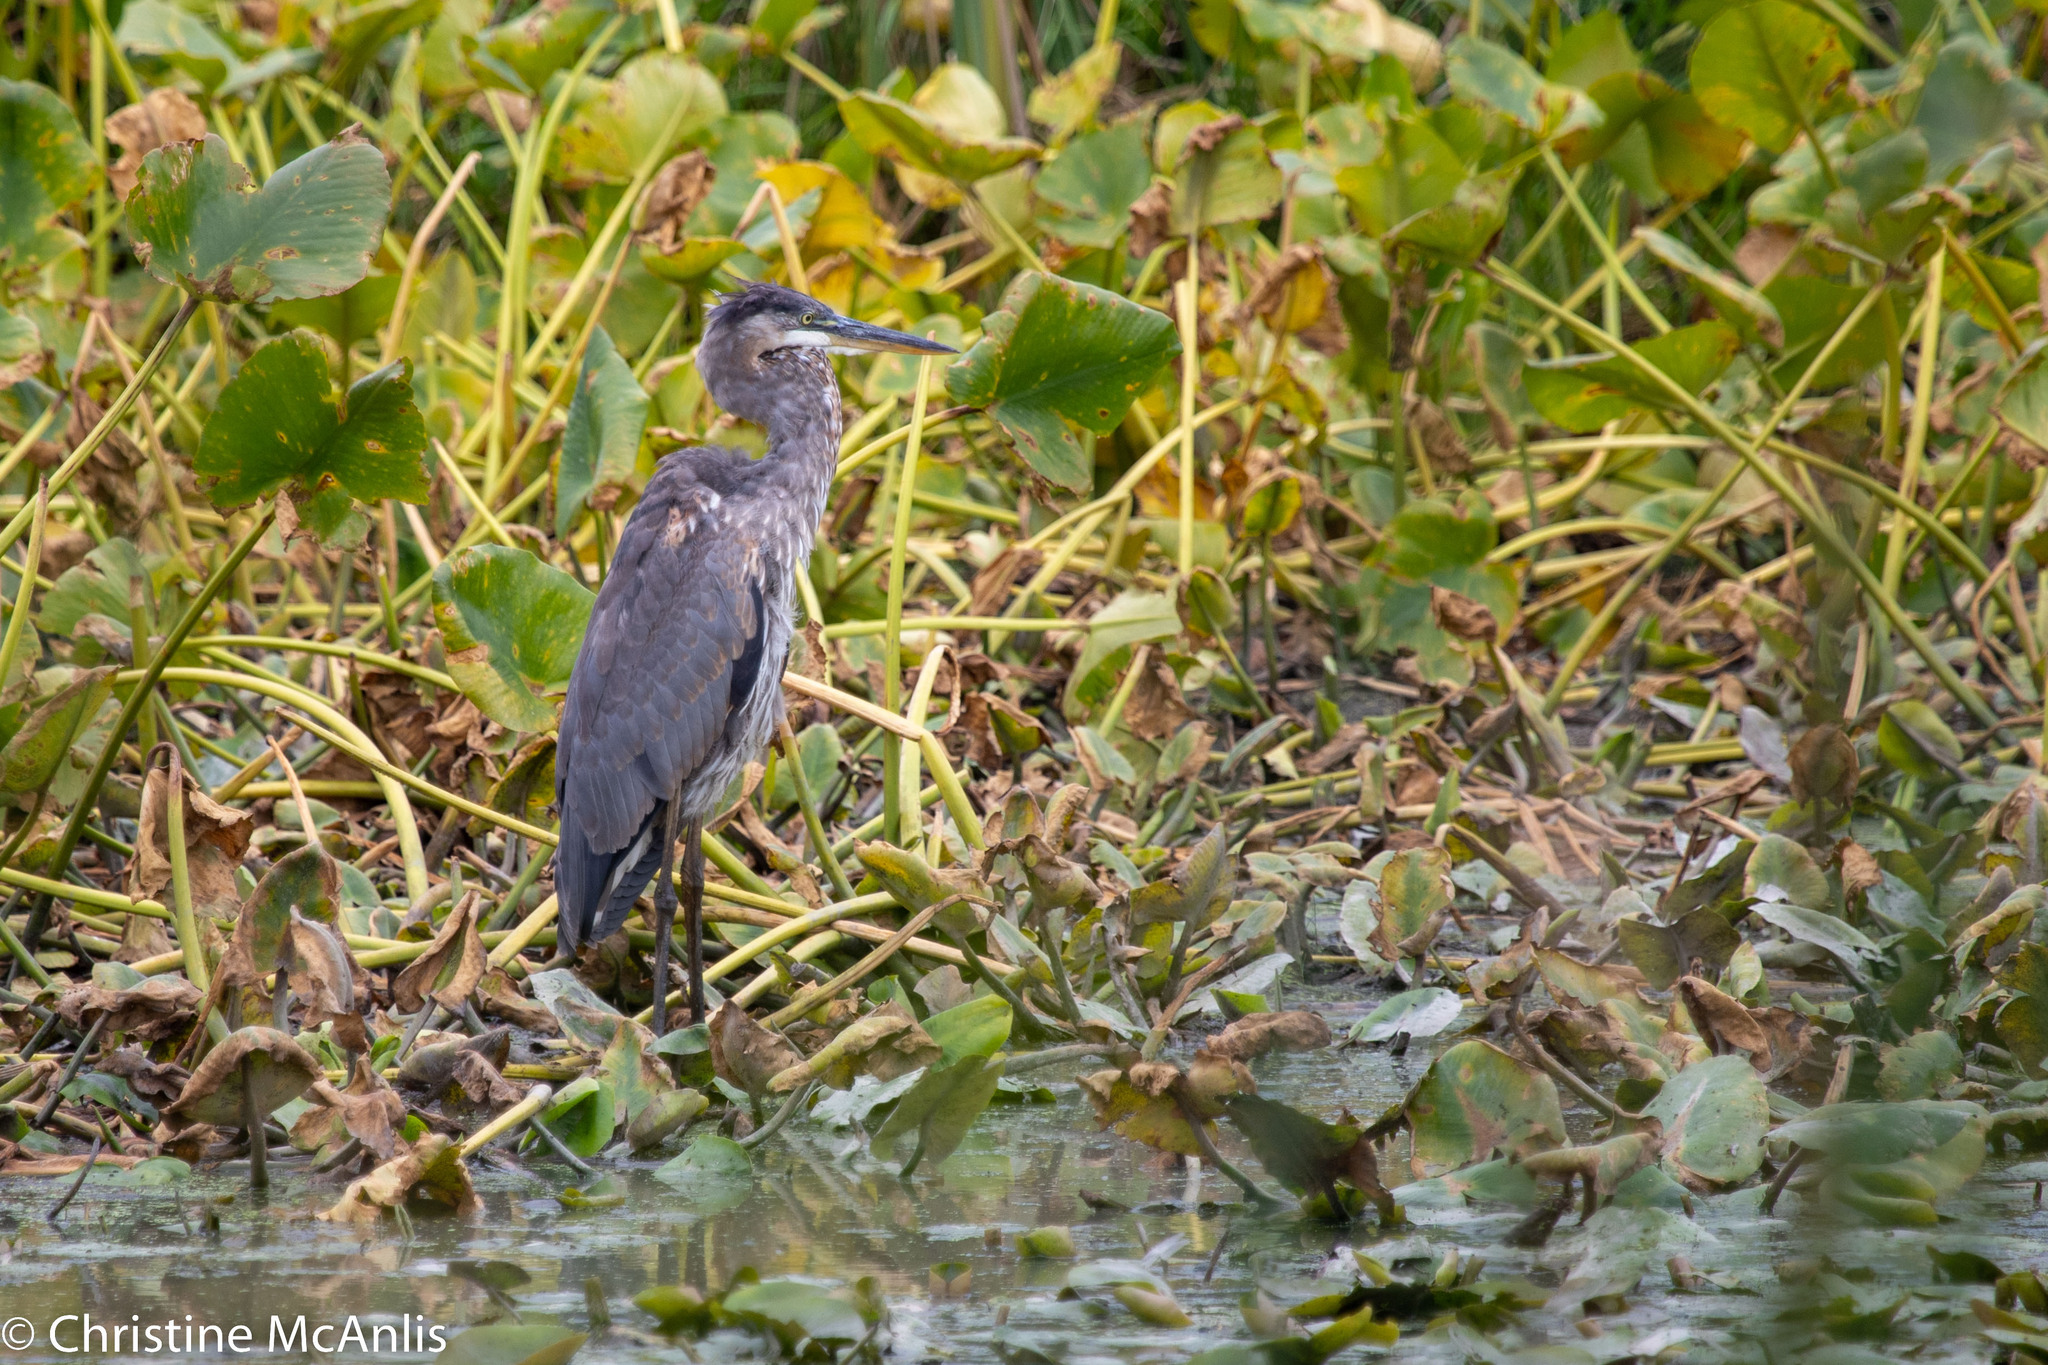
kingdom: Animalia
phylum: Chordata
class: Aves
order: Pelecaniformes
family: Ardeidae
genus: Ardea
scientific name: Ardea herodias
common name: Great blue heron
